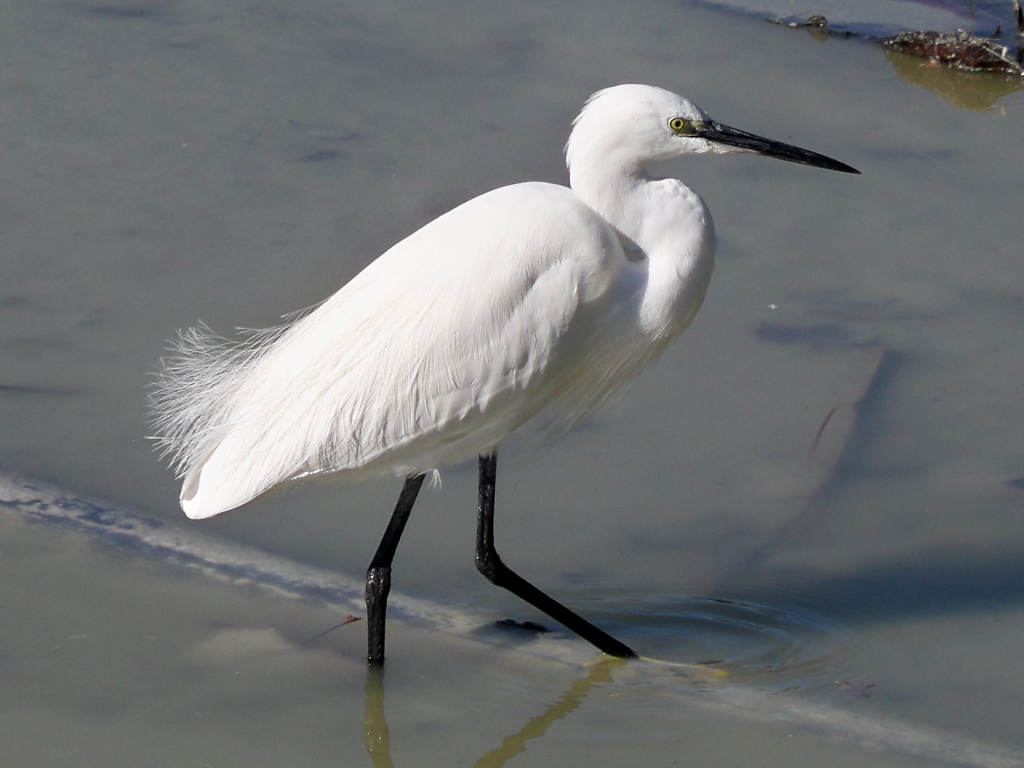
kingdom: Animalia
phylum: Chordata
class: Aves
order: Pelecaniformes
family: Ardeidae
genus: Egretta
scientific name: Egretta garzetta
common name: Little egret
